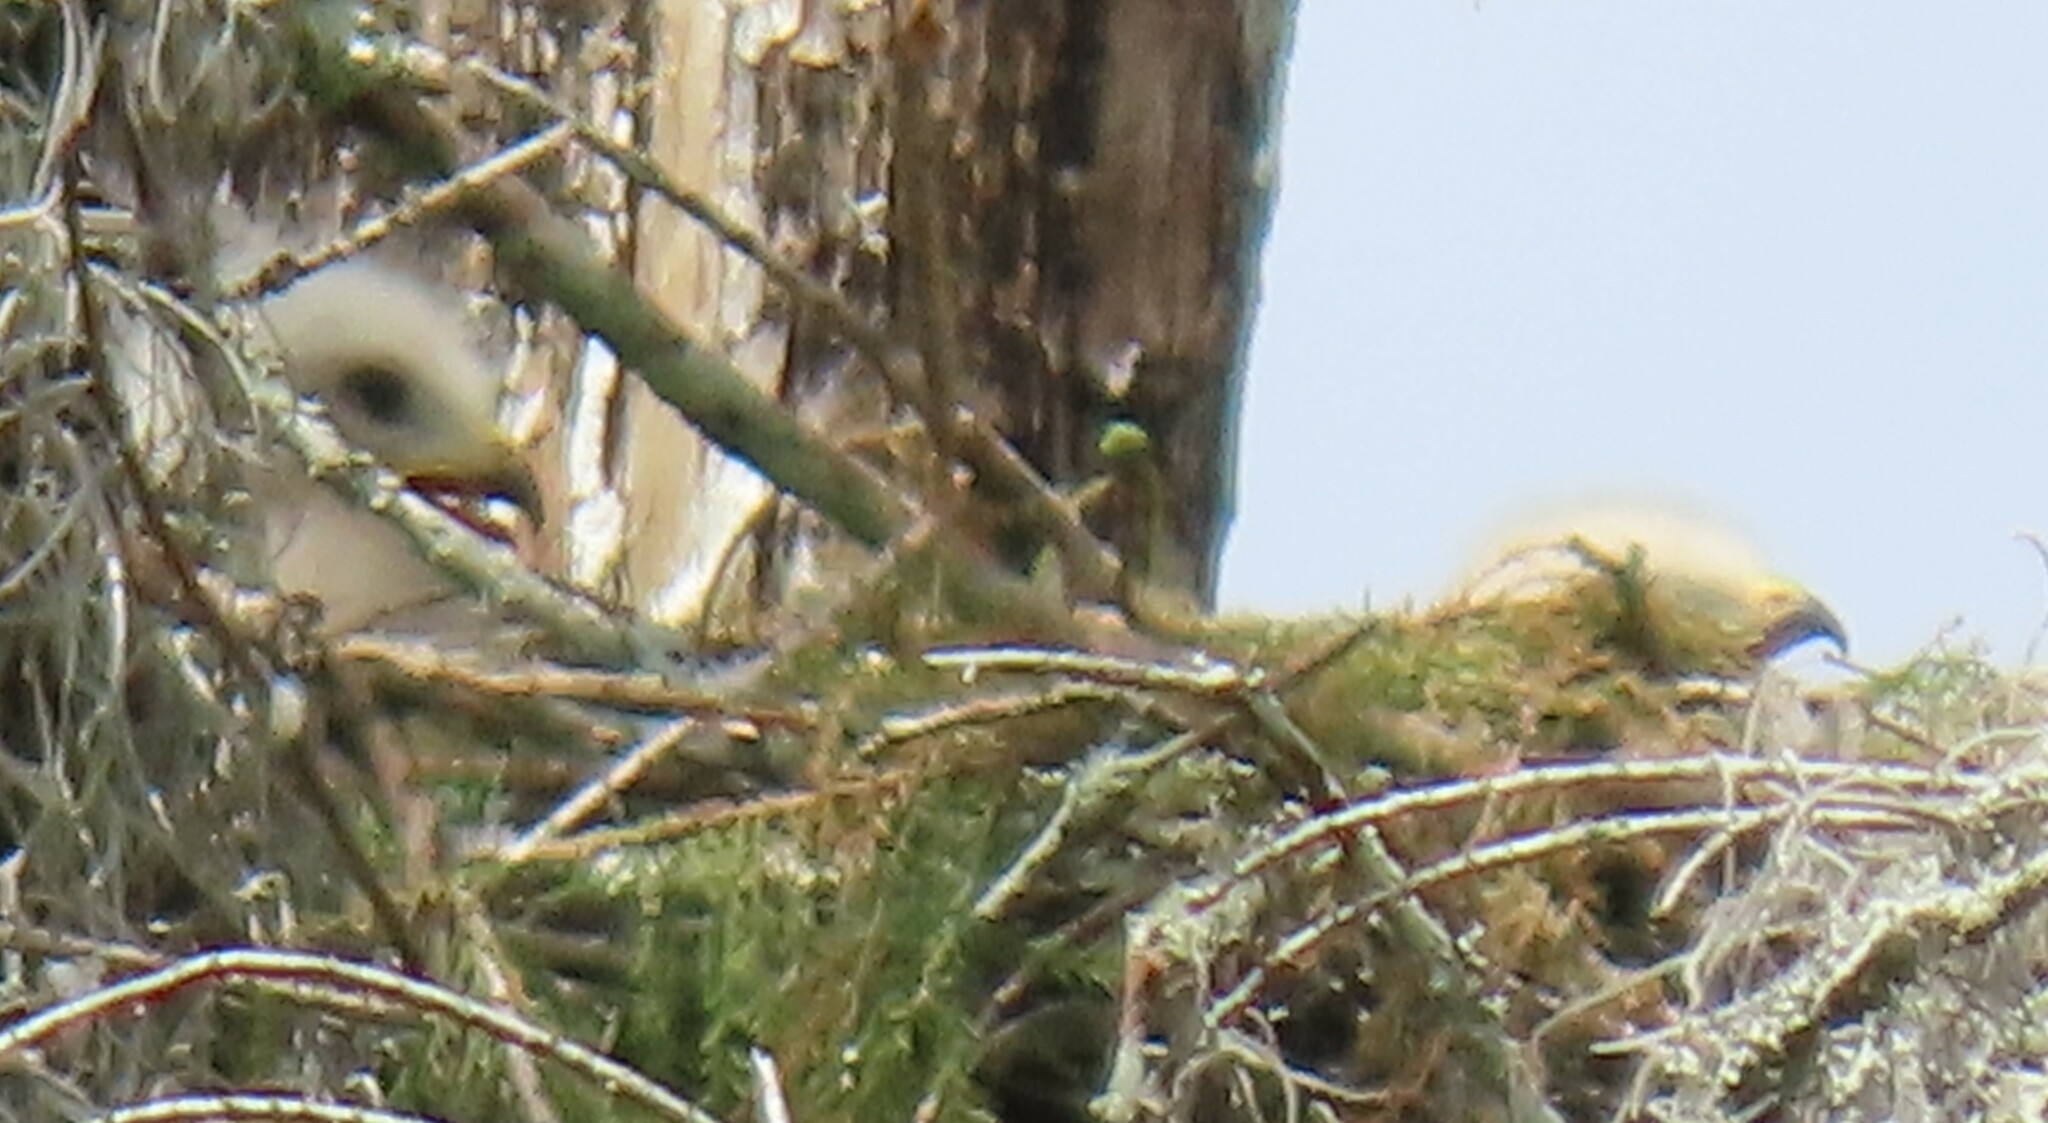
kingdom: Animalia
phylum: Chordata
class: Aves
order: Accipitriformes
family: Accipitridae
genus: Buteo
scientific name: Buteo lineatus
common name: Red-shouldered hawk
